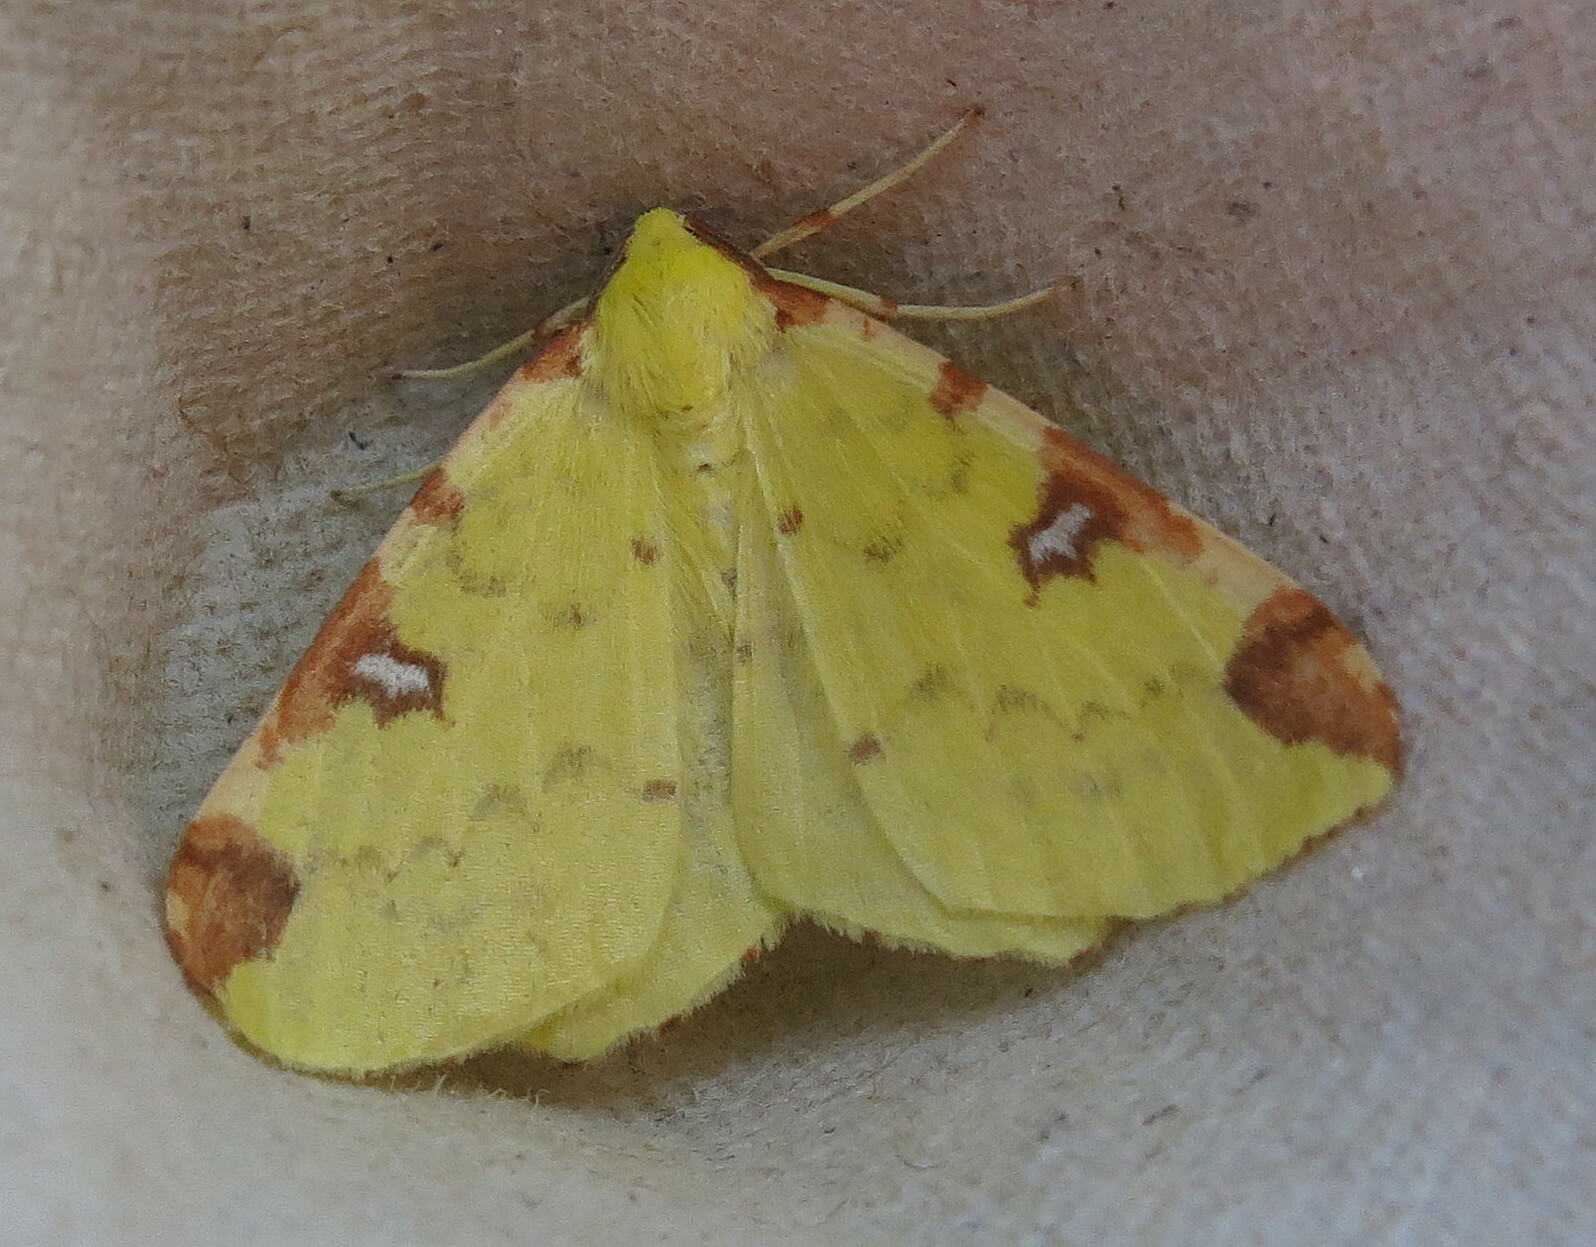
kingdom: Animalia
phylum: Arthropoda
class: Insecta
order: Lepidoptera
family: Geometridae
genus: Opisthograptis
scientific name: Opisthograptis luteolata
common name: Brimstone moth
